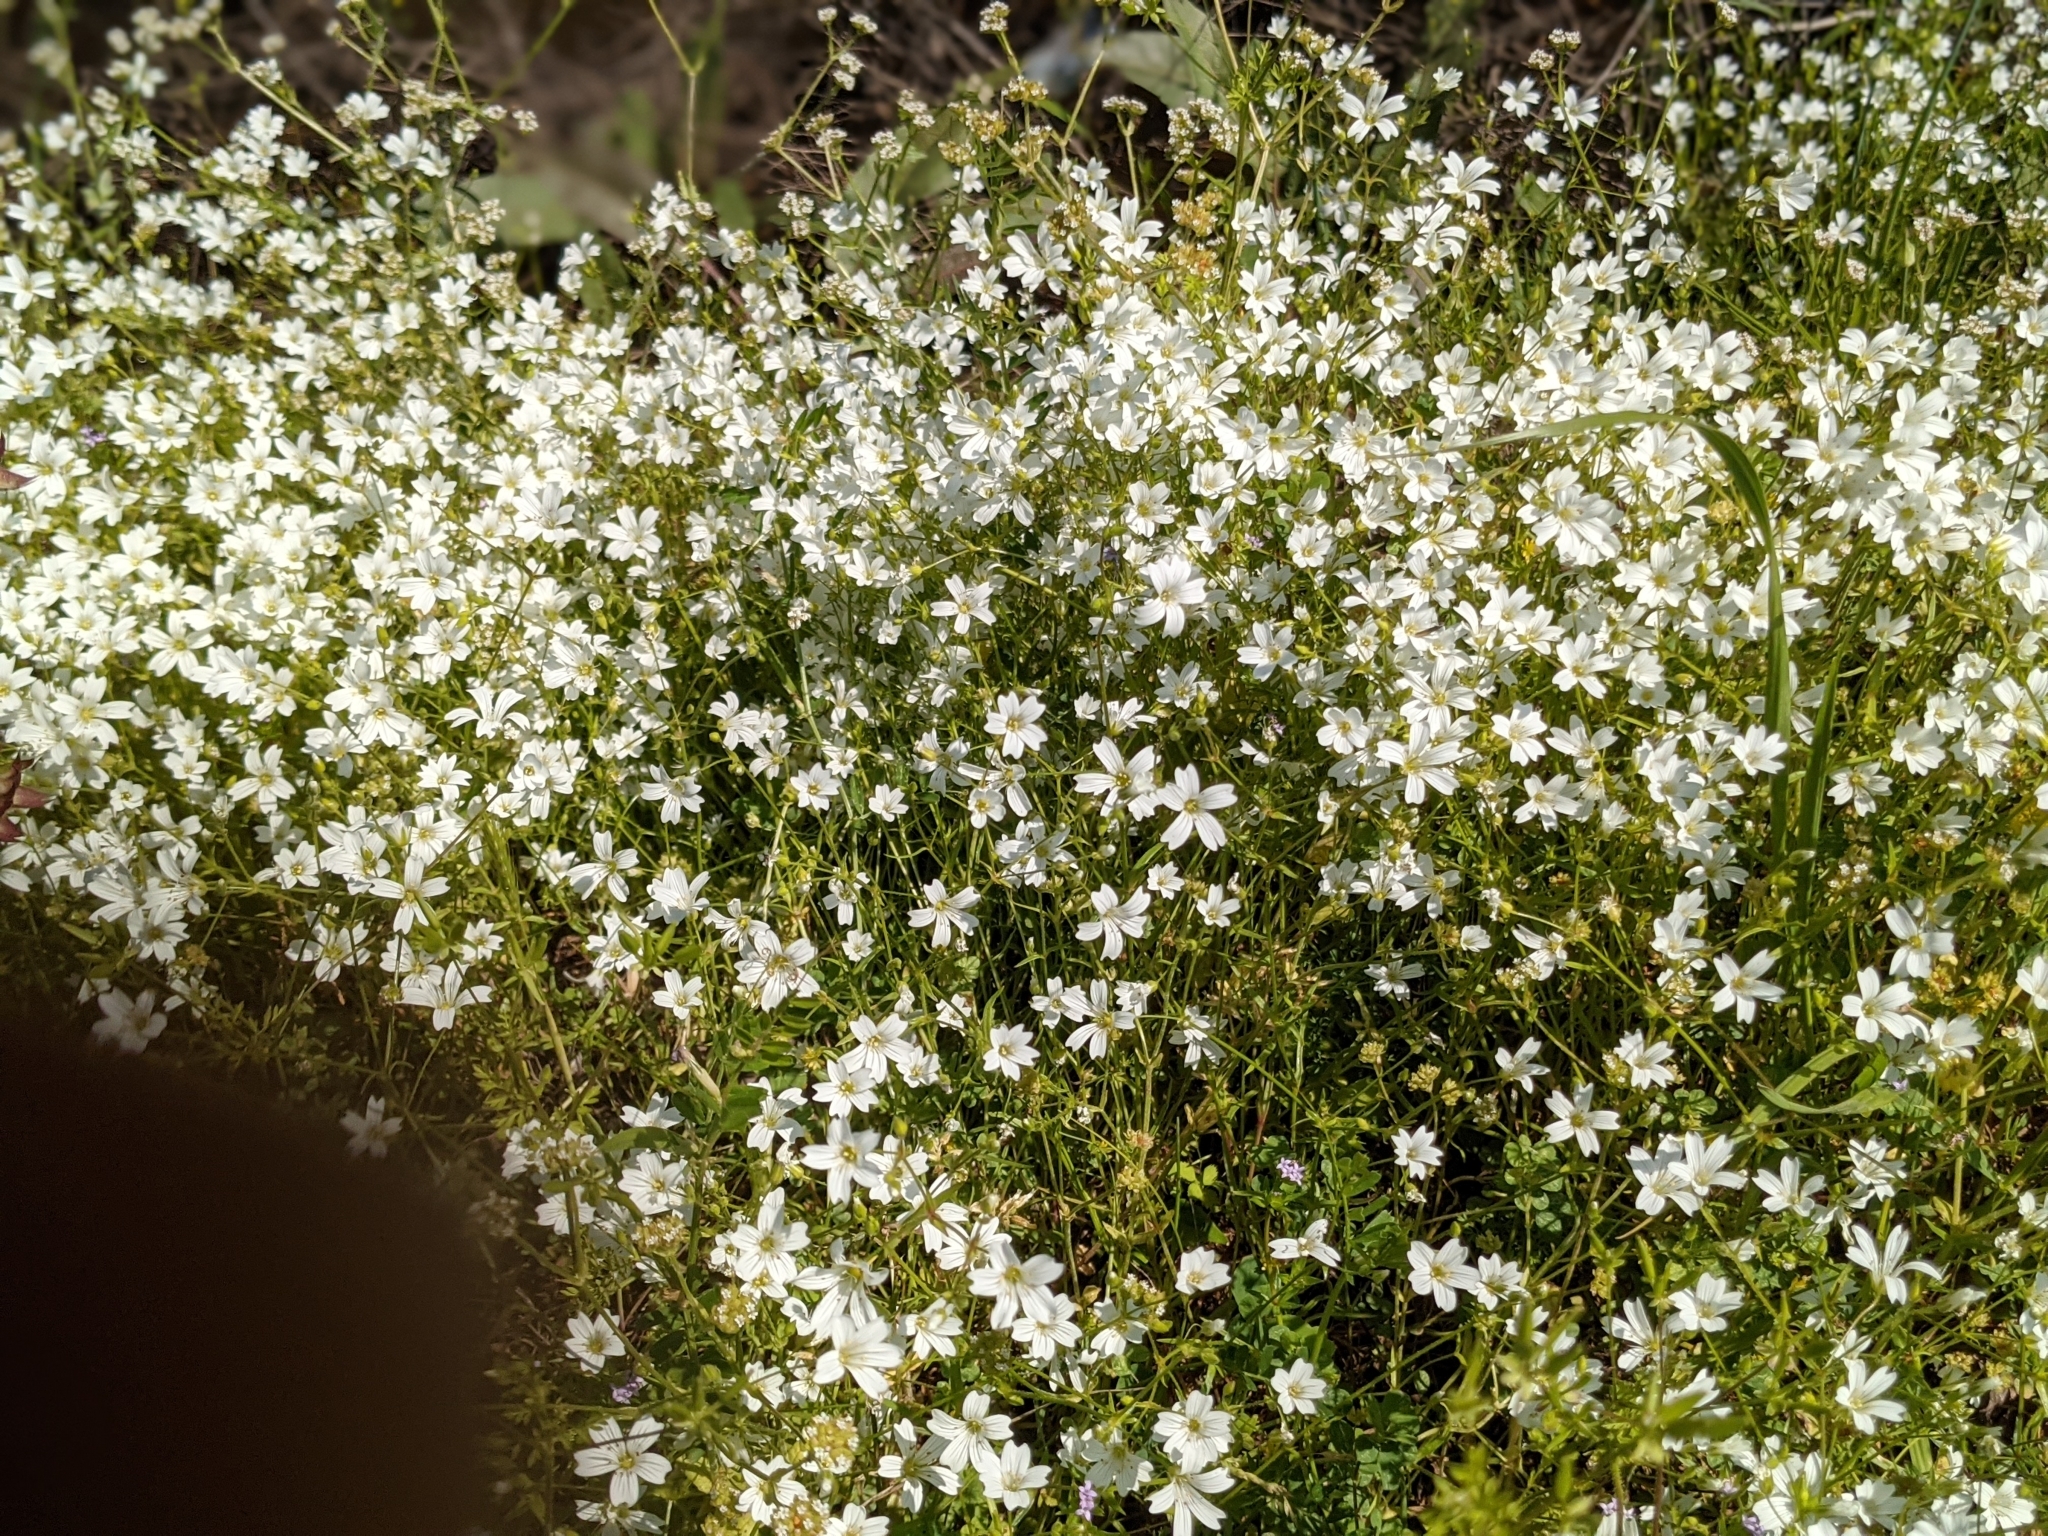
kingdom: Plantae
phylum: Tracheophyta
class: Magnoliopsida
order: Caryophyllales
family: Caryophyllaceae
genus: Mononeuria
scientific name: Mononeuria patula
